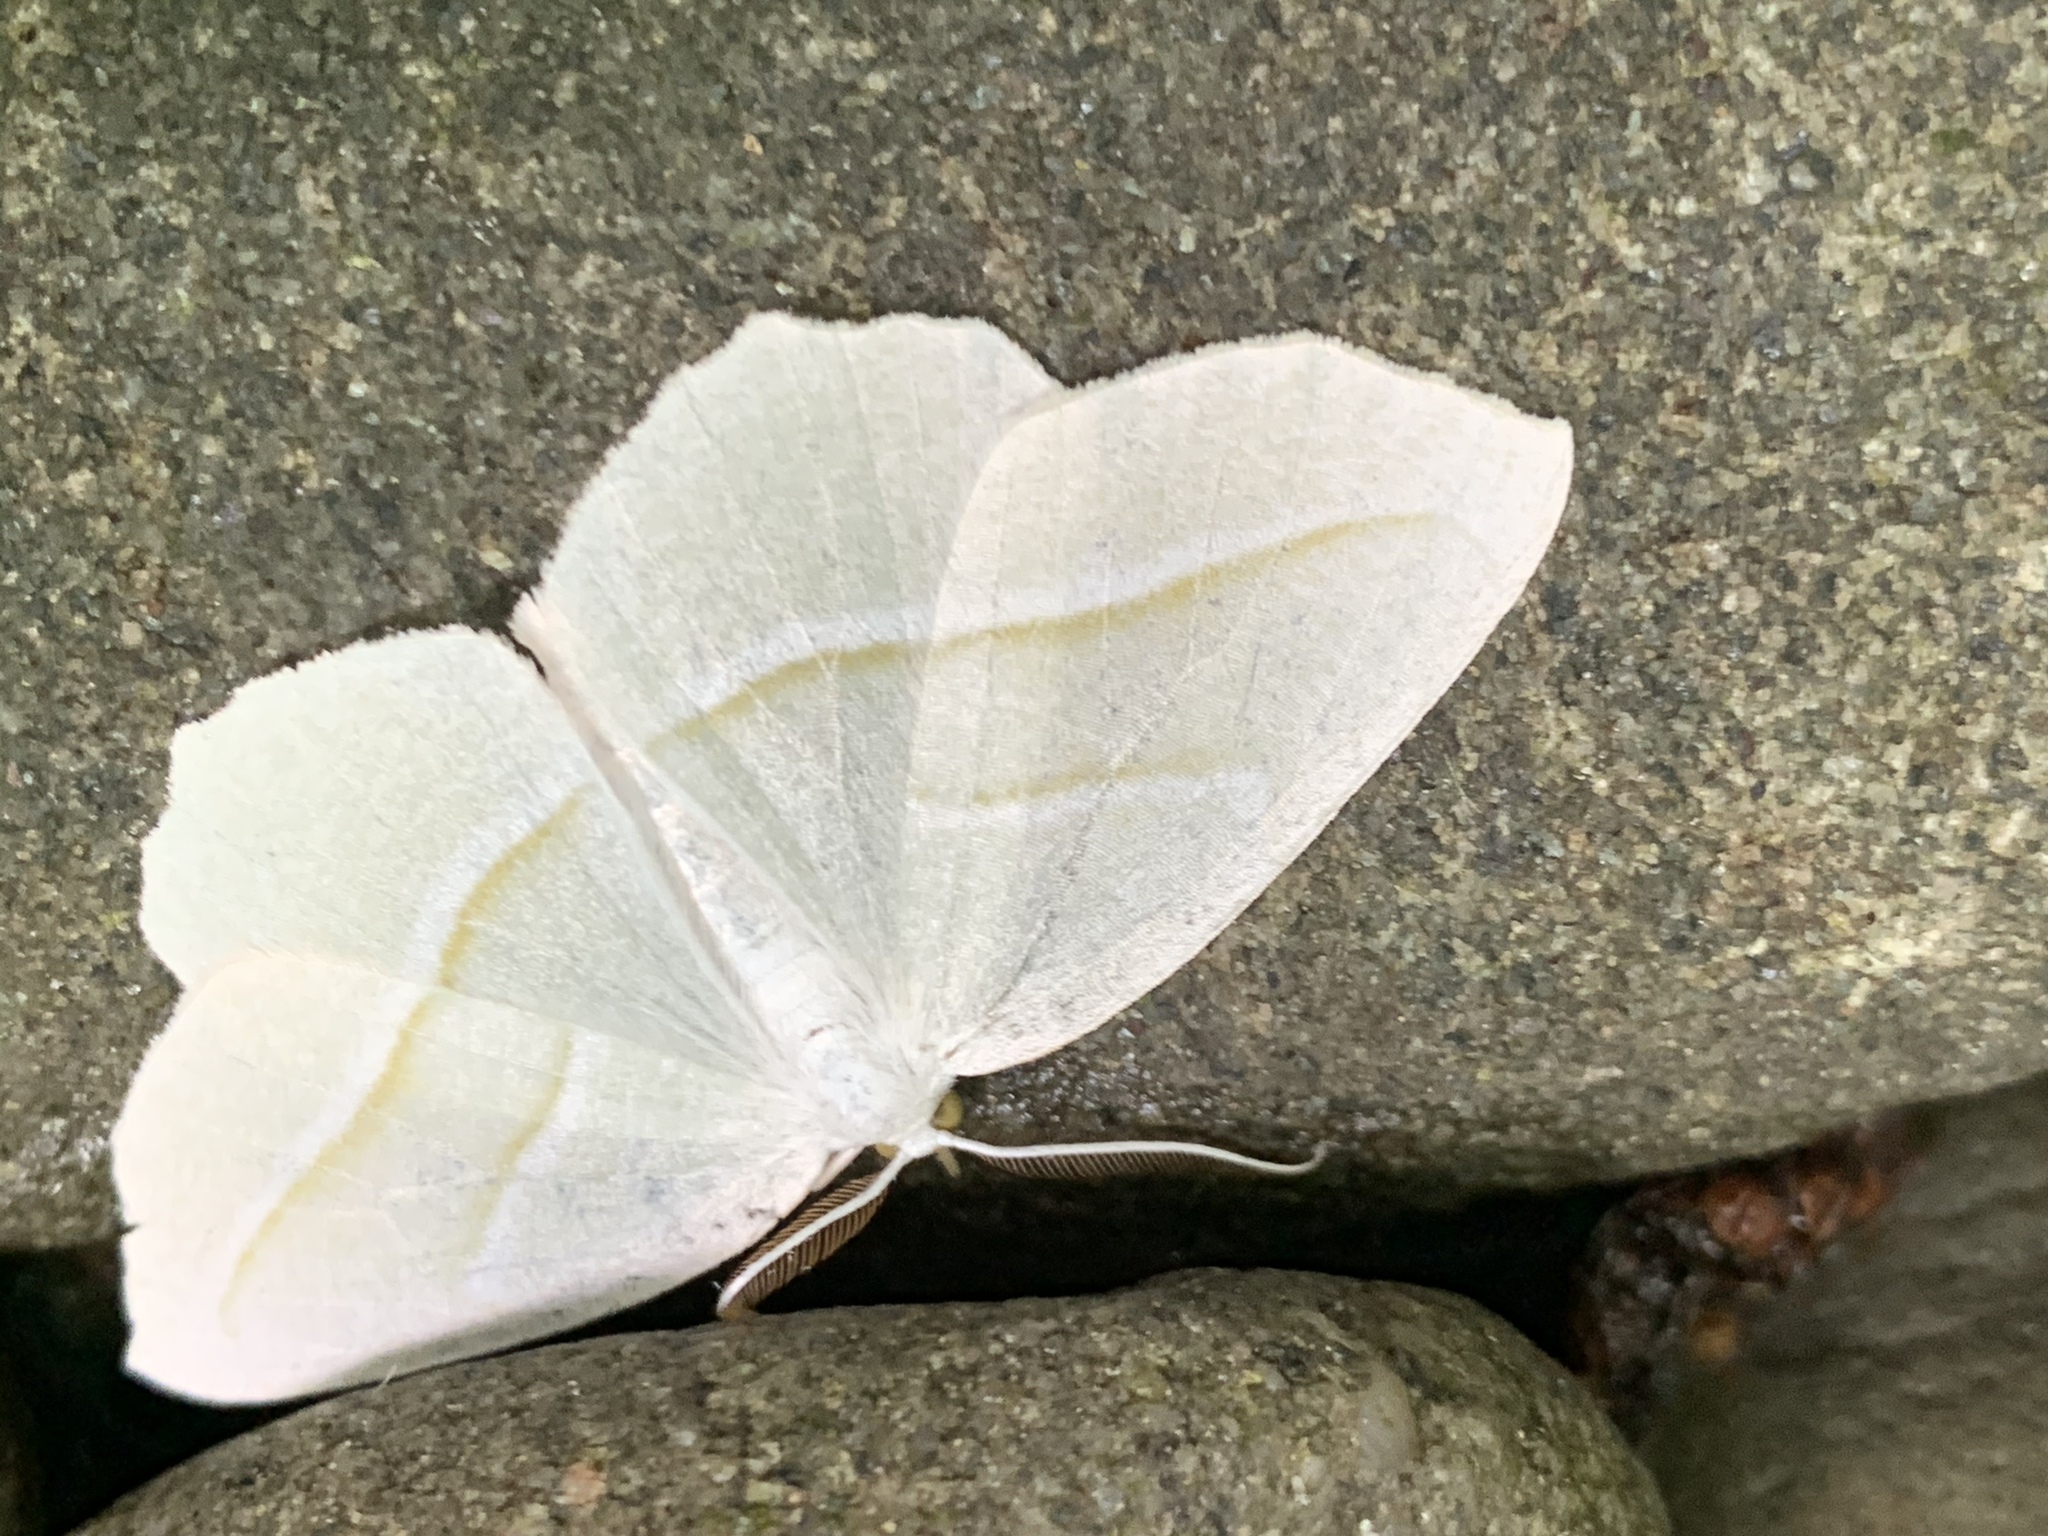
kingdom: Animalia
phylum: Arthropoda
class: Insecta
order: Lepidoptera
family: Geometridae
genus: Campaea
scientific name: Campaea perlata
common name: Fringed looper
